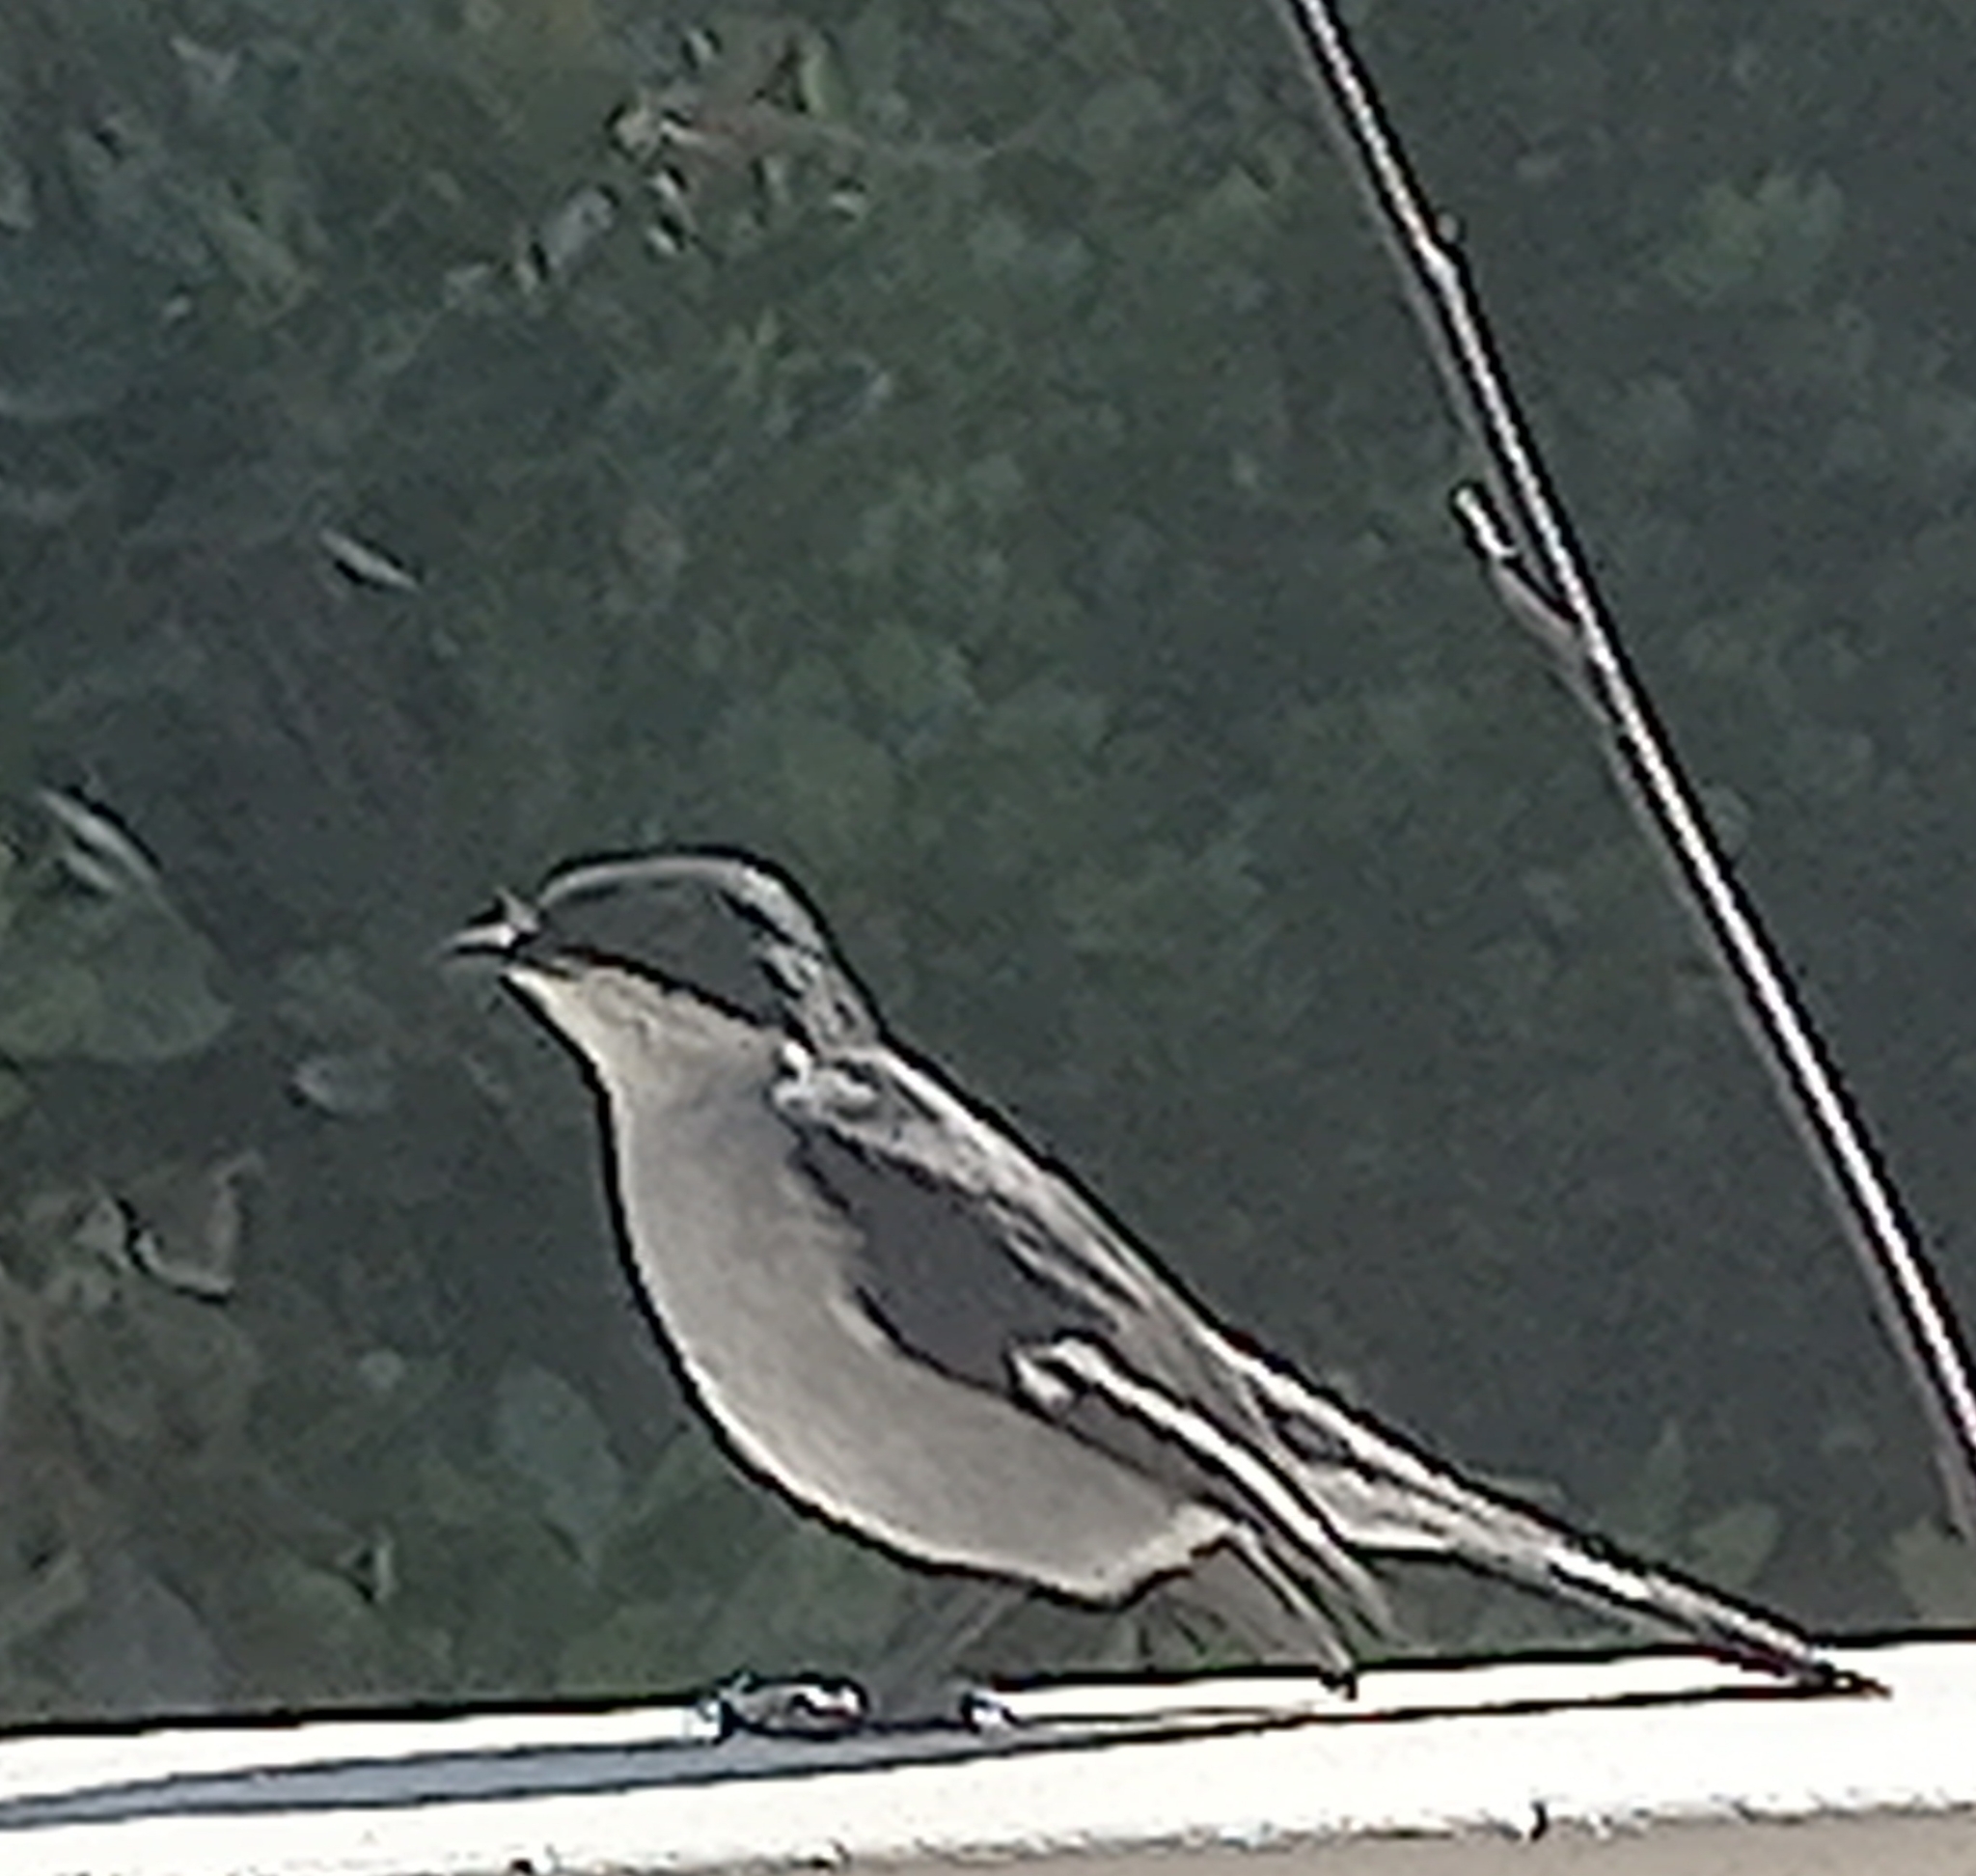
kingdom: Animalia
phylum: Chordata
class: Aves
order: Passeriformes
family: Muscicapidae
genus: Sigelus
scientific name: Sigelus silens
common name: Fiscal flycatcher
